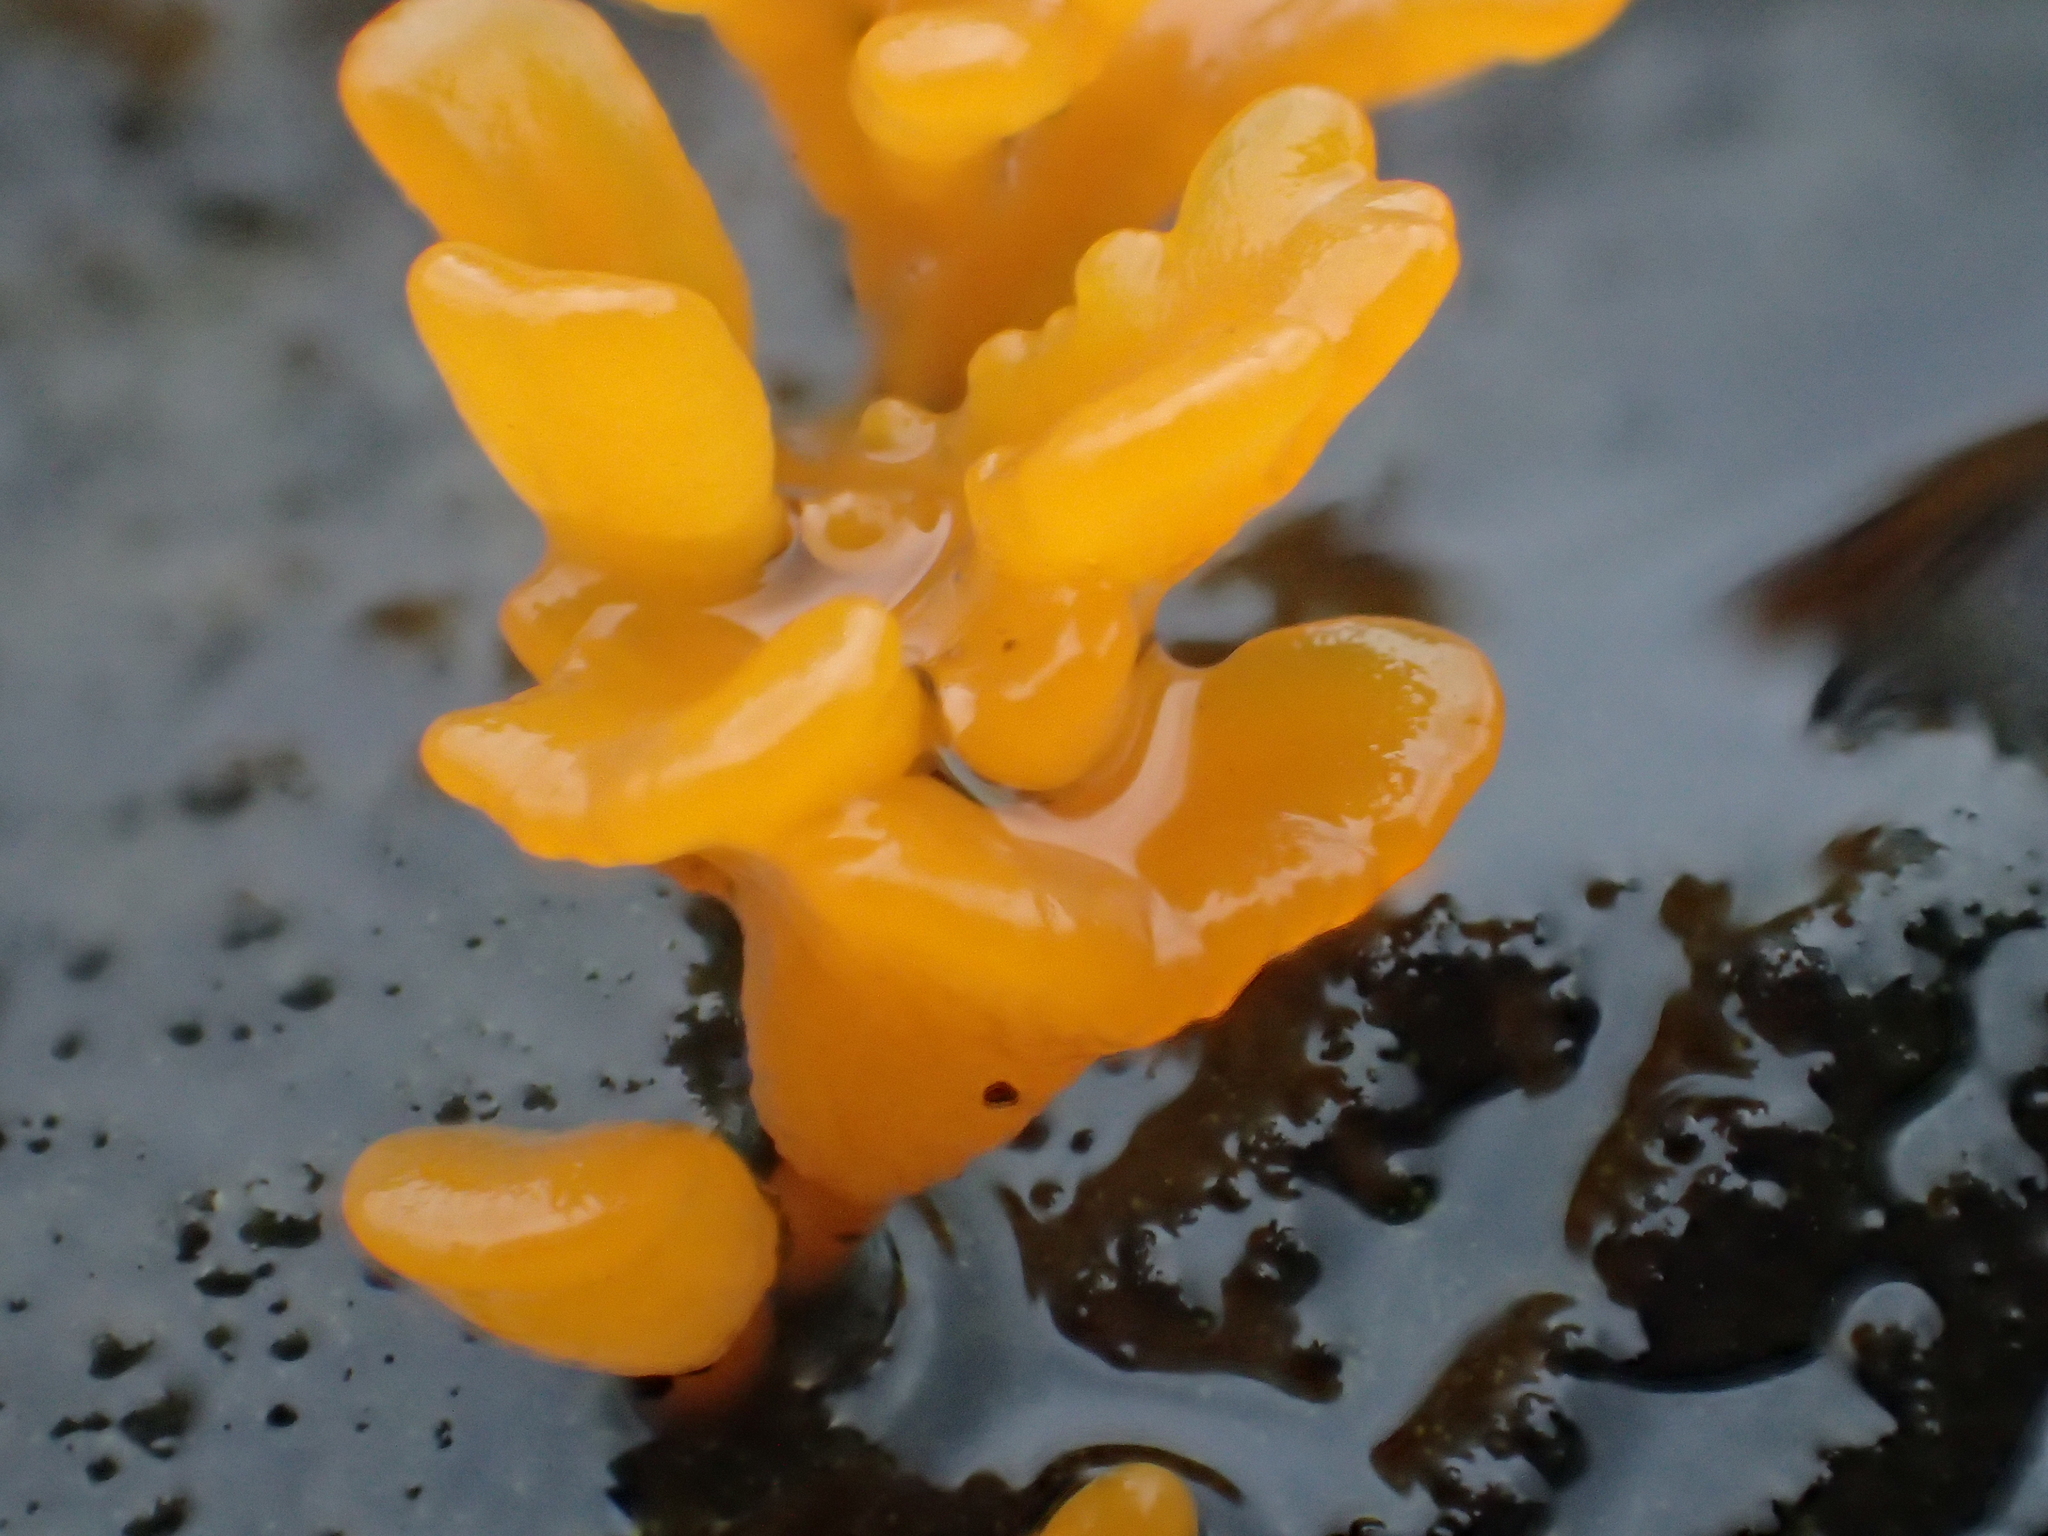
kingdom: Fungi
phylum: Basidiomycota
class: Dacrymycetes
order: Dacrymycetales
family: Dacrymycetaceae
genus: Dacrymyces
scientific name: Dacrymyces spathularius
